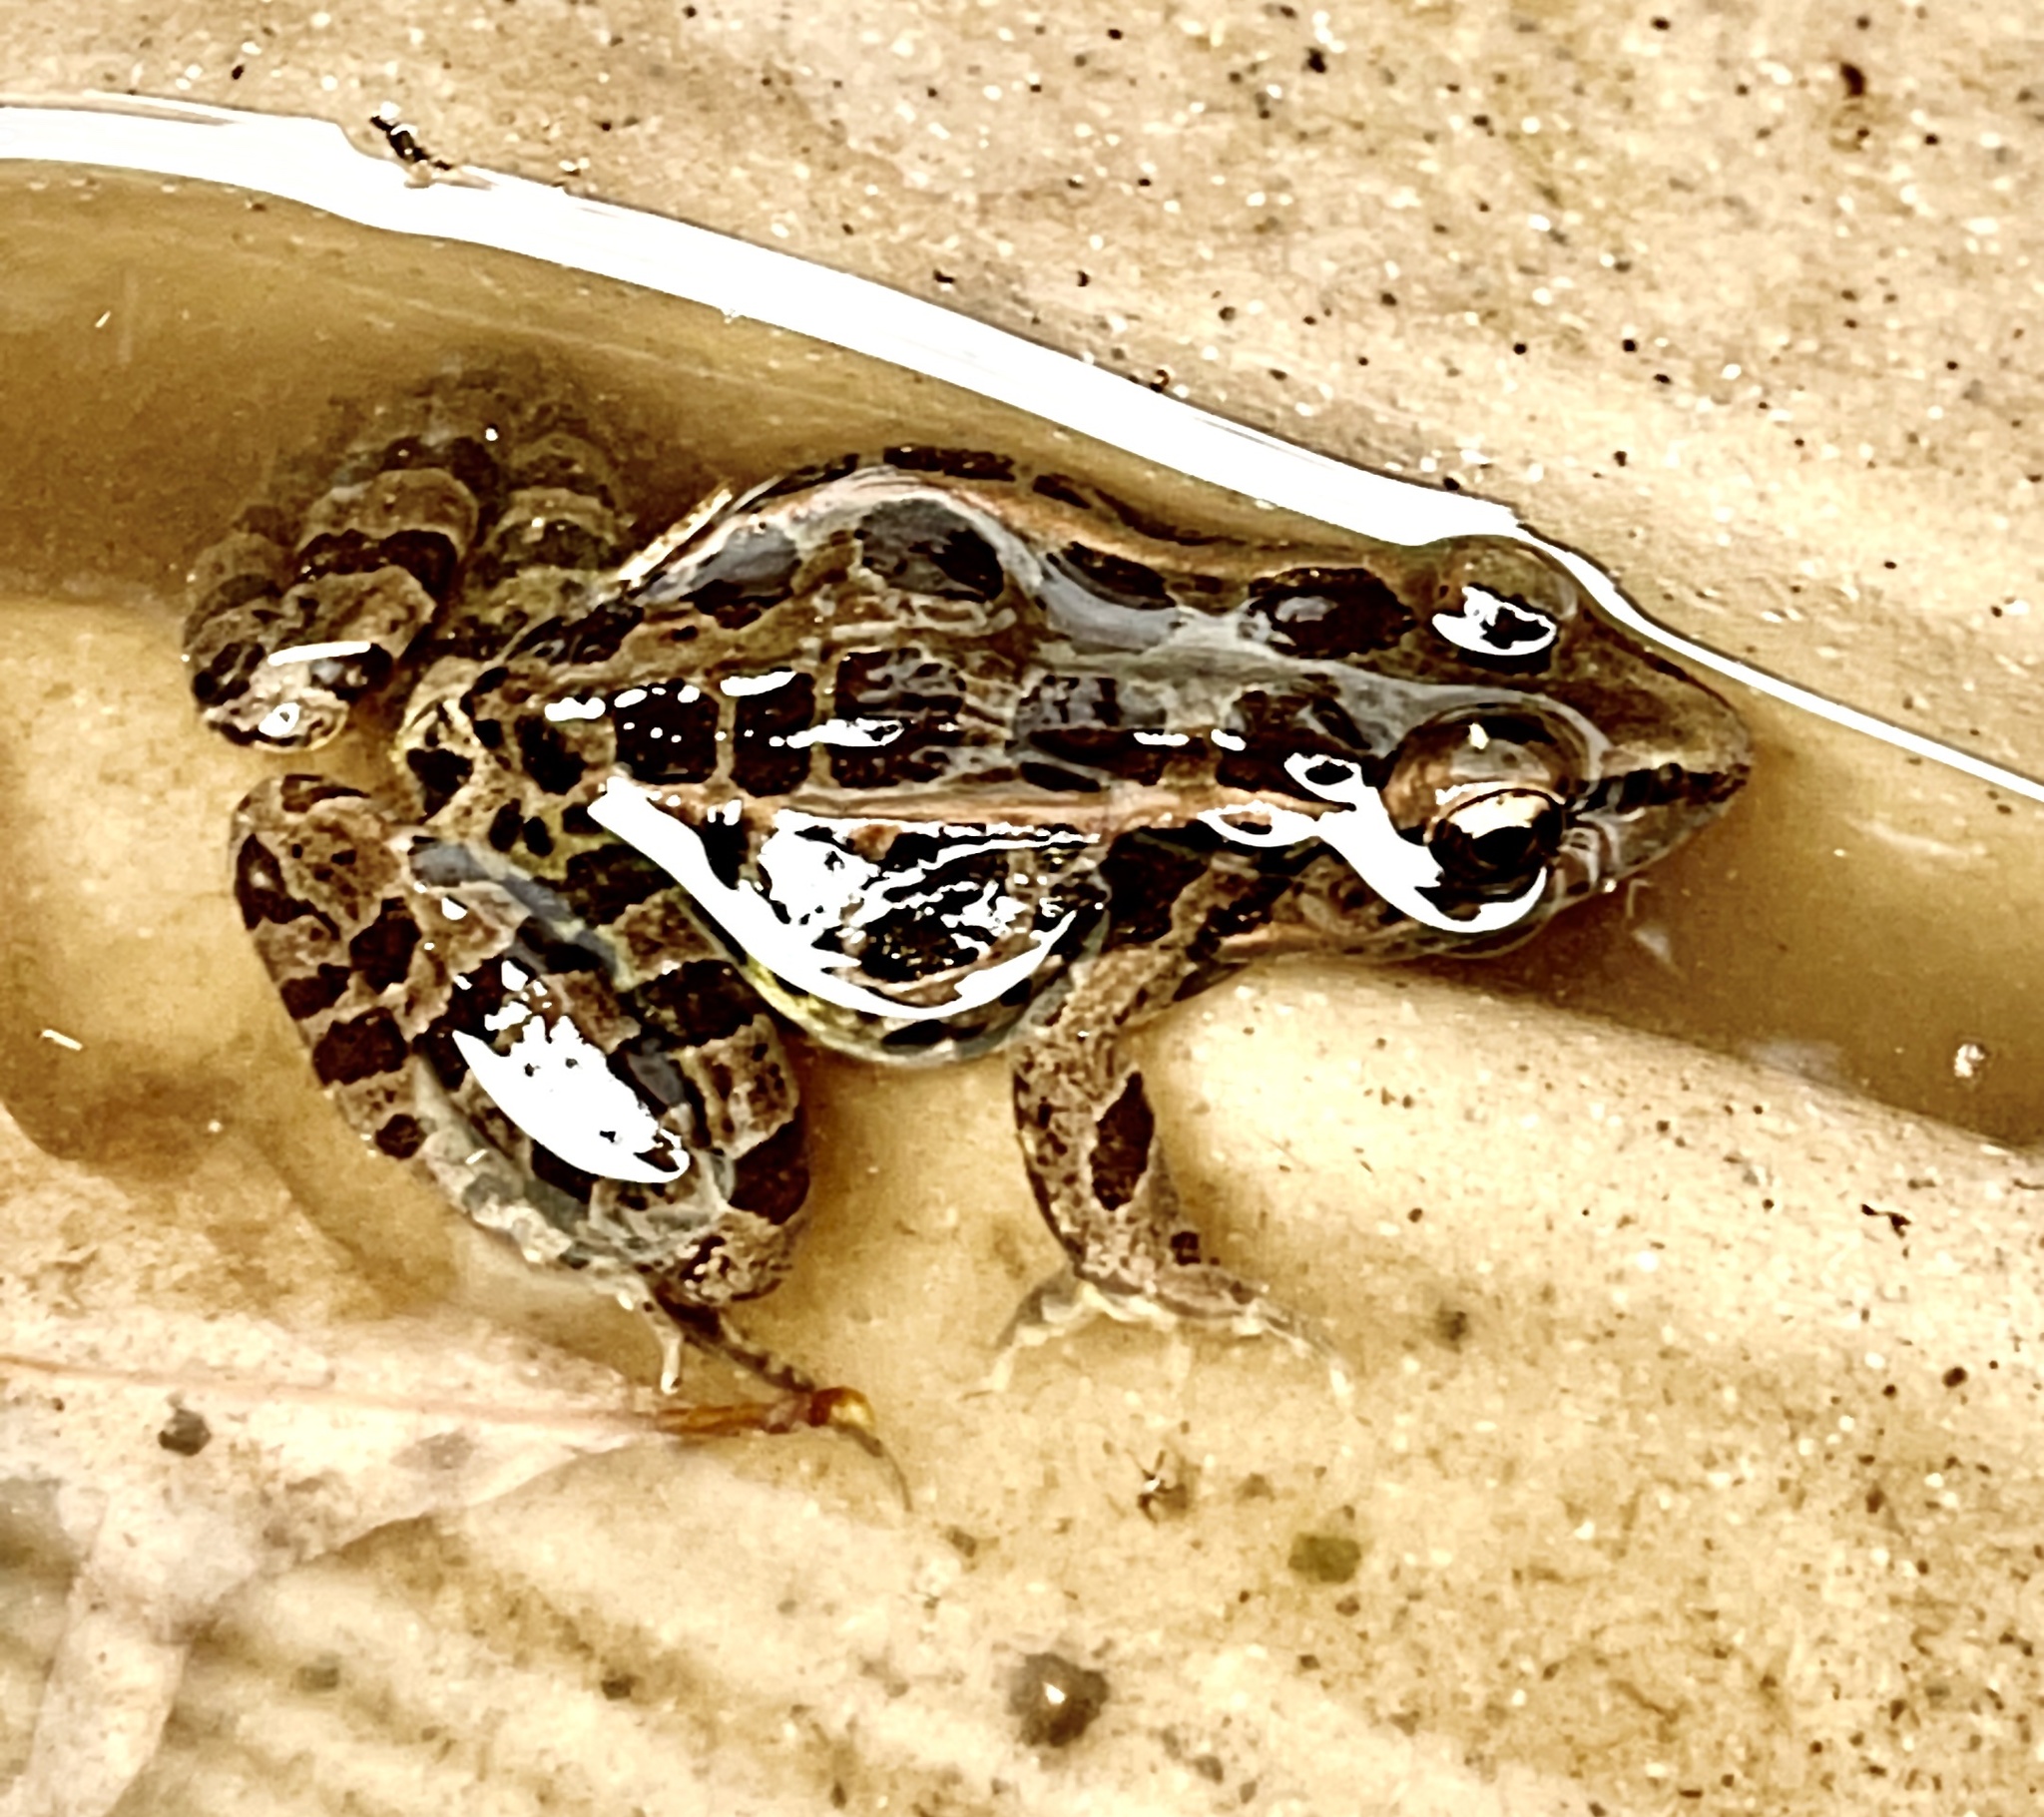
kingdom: Animalia
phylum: Chordata
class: Amphibia
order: Anura
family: Ranidae
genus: Lithobates
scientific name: Lithobates palustris
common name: Pickerel frog
